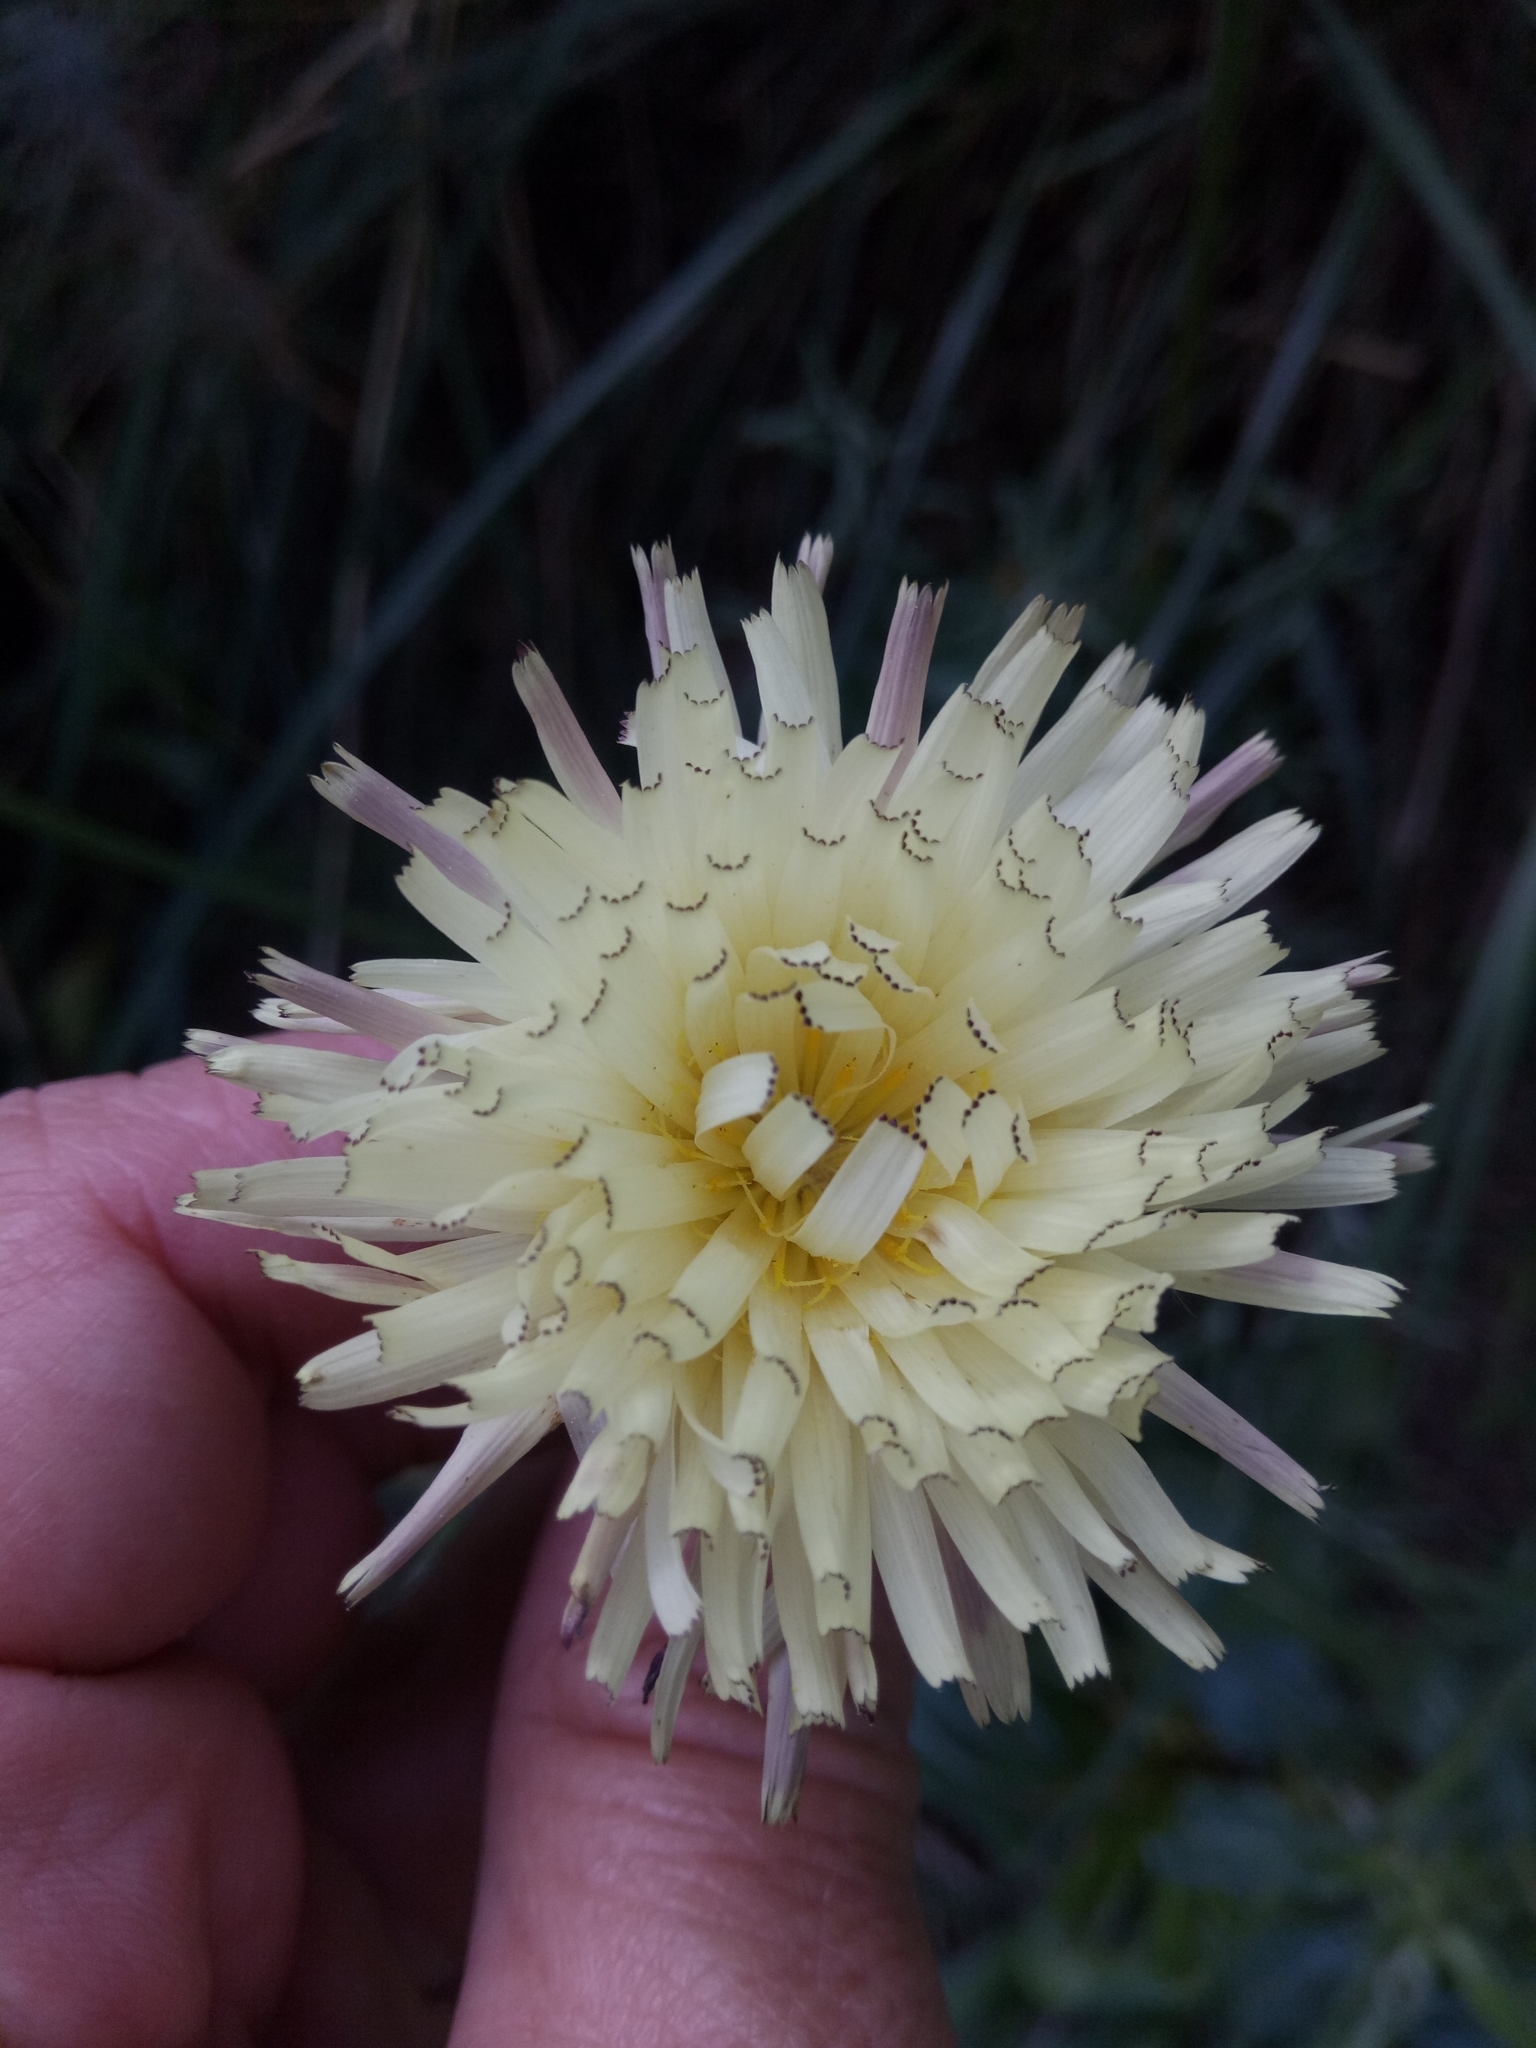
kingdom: Plantae
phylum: Tracheophyta
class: Magnoliopsida
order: Asterales
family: Asteraceae
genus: Urospermum
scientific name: Urospermum dalechampii
